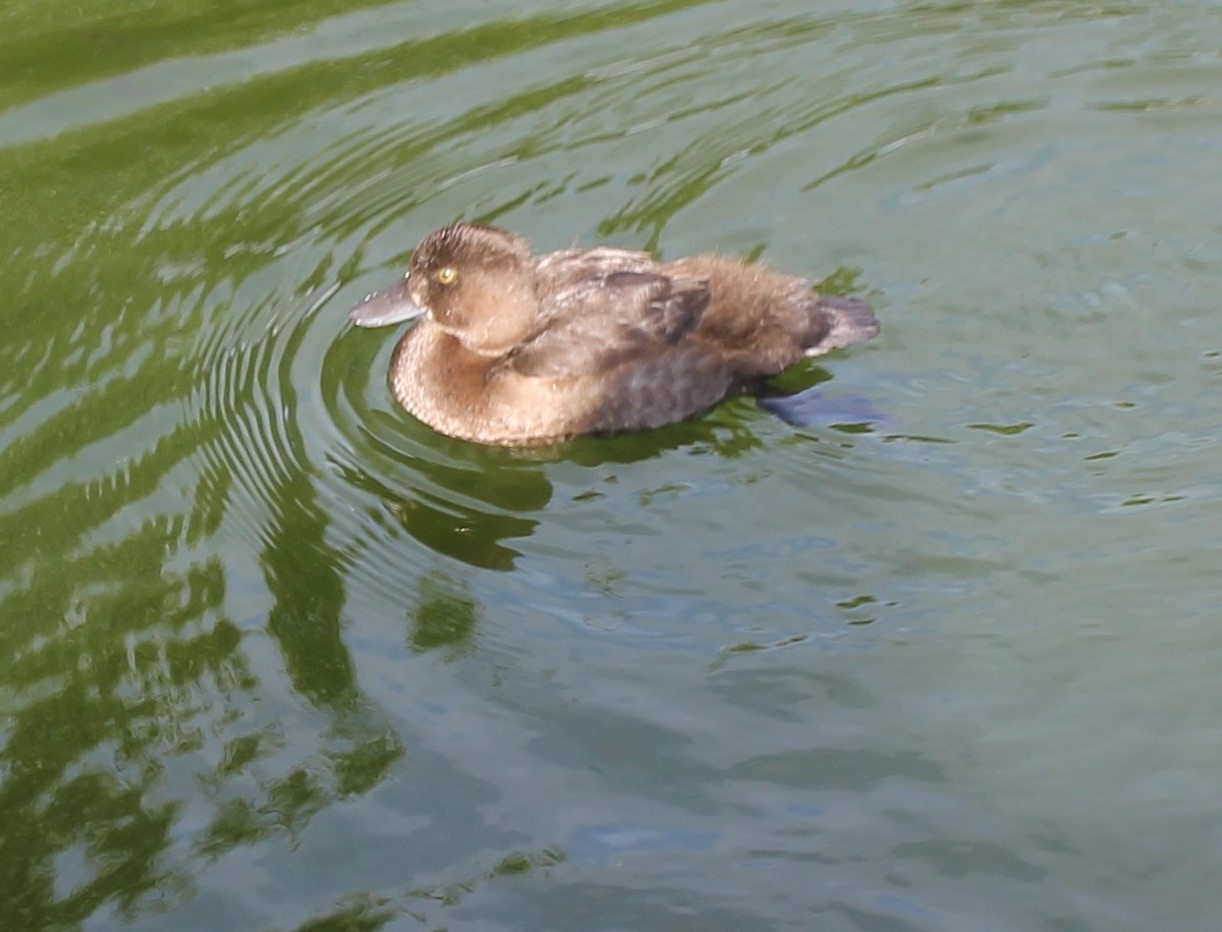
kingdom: Animalia
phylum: Chordata
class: Aves
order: Anseriformes
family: Anatidae
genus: Aythya
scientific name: Aythya fuligula
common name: Tufted duck
